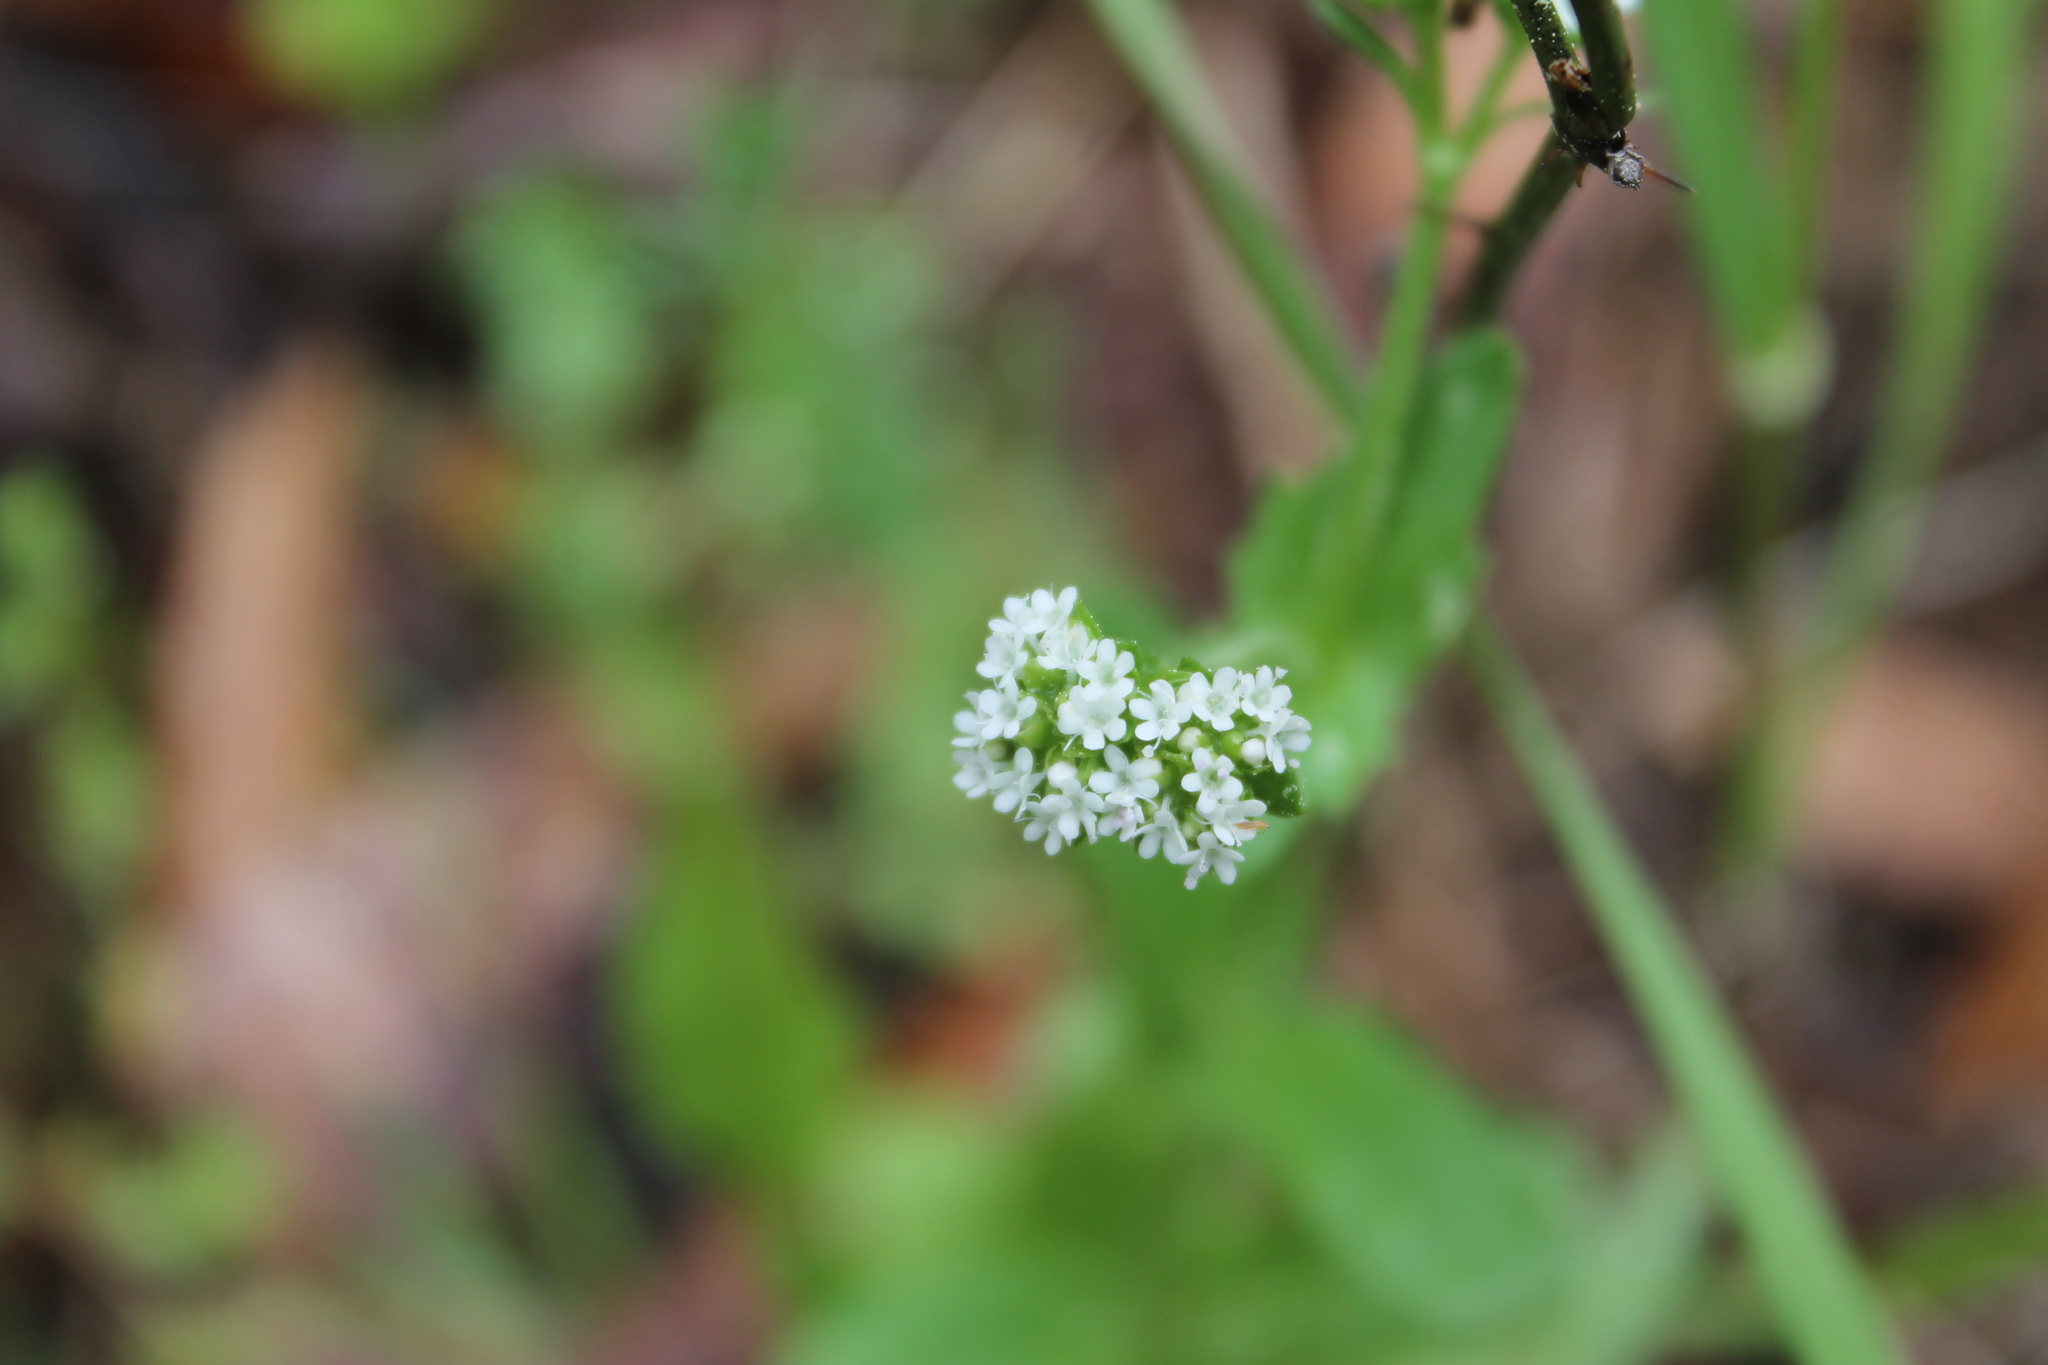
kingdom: Plantae
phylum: Tracheophyta
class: Magnoliopsida
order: Dipsacales
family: Caprifoliaceae
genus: Valerianella
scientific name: Valerianella radiata
